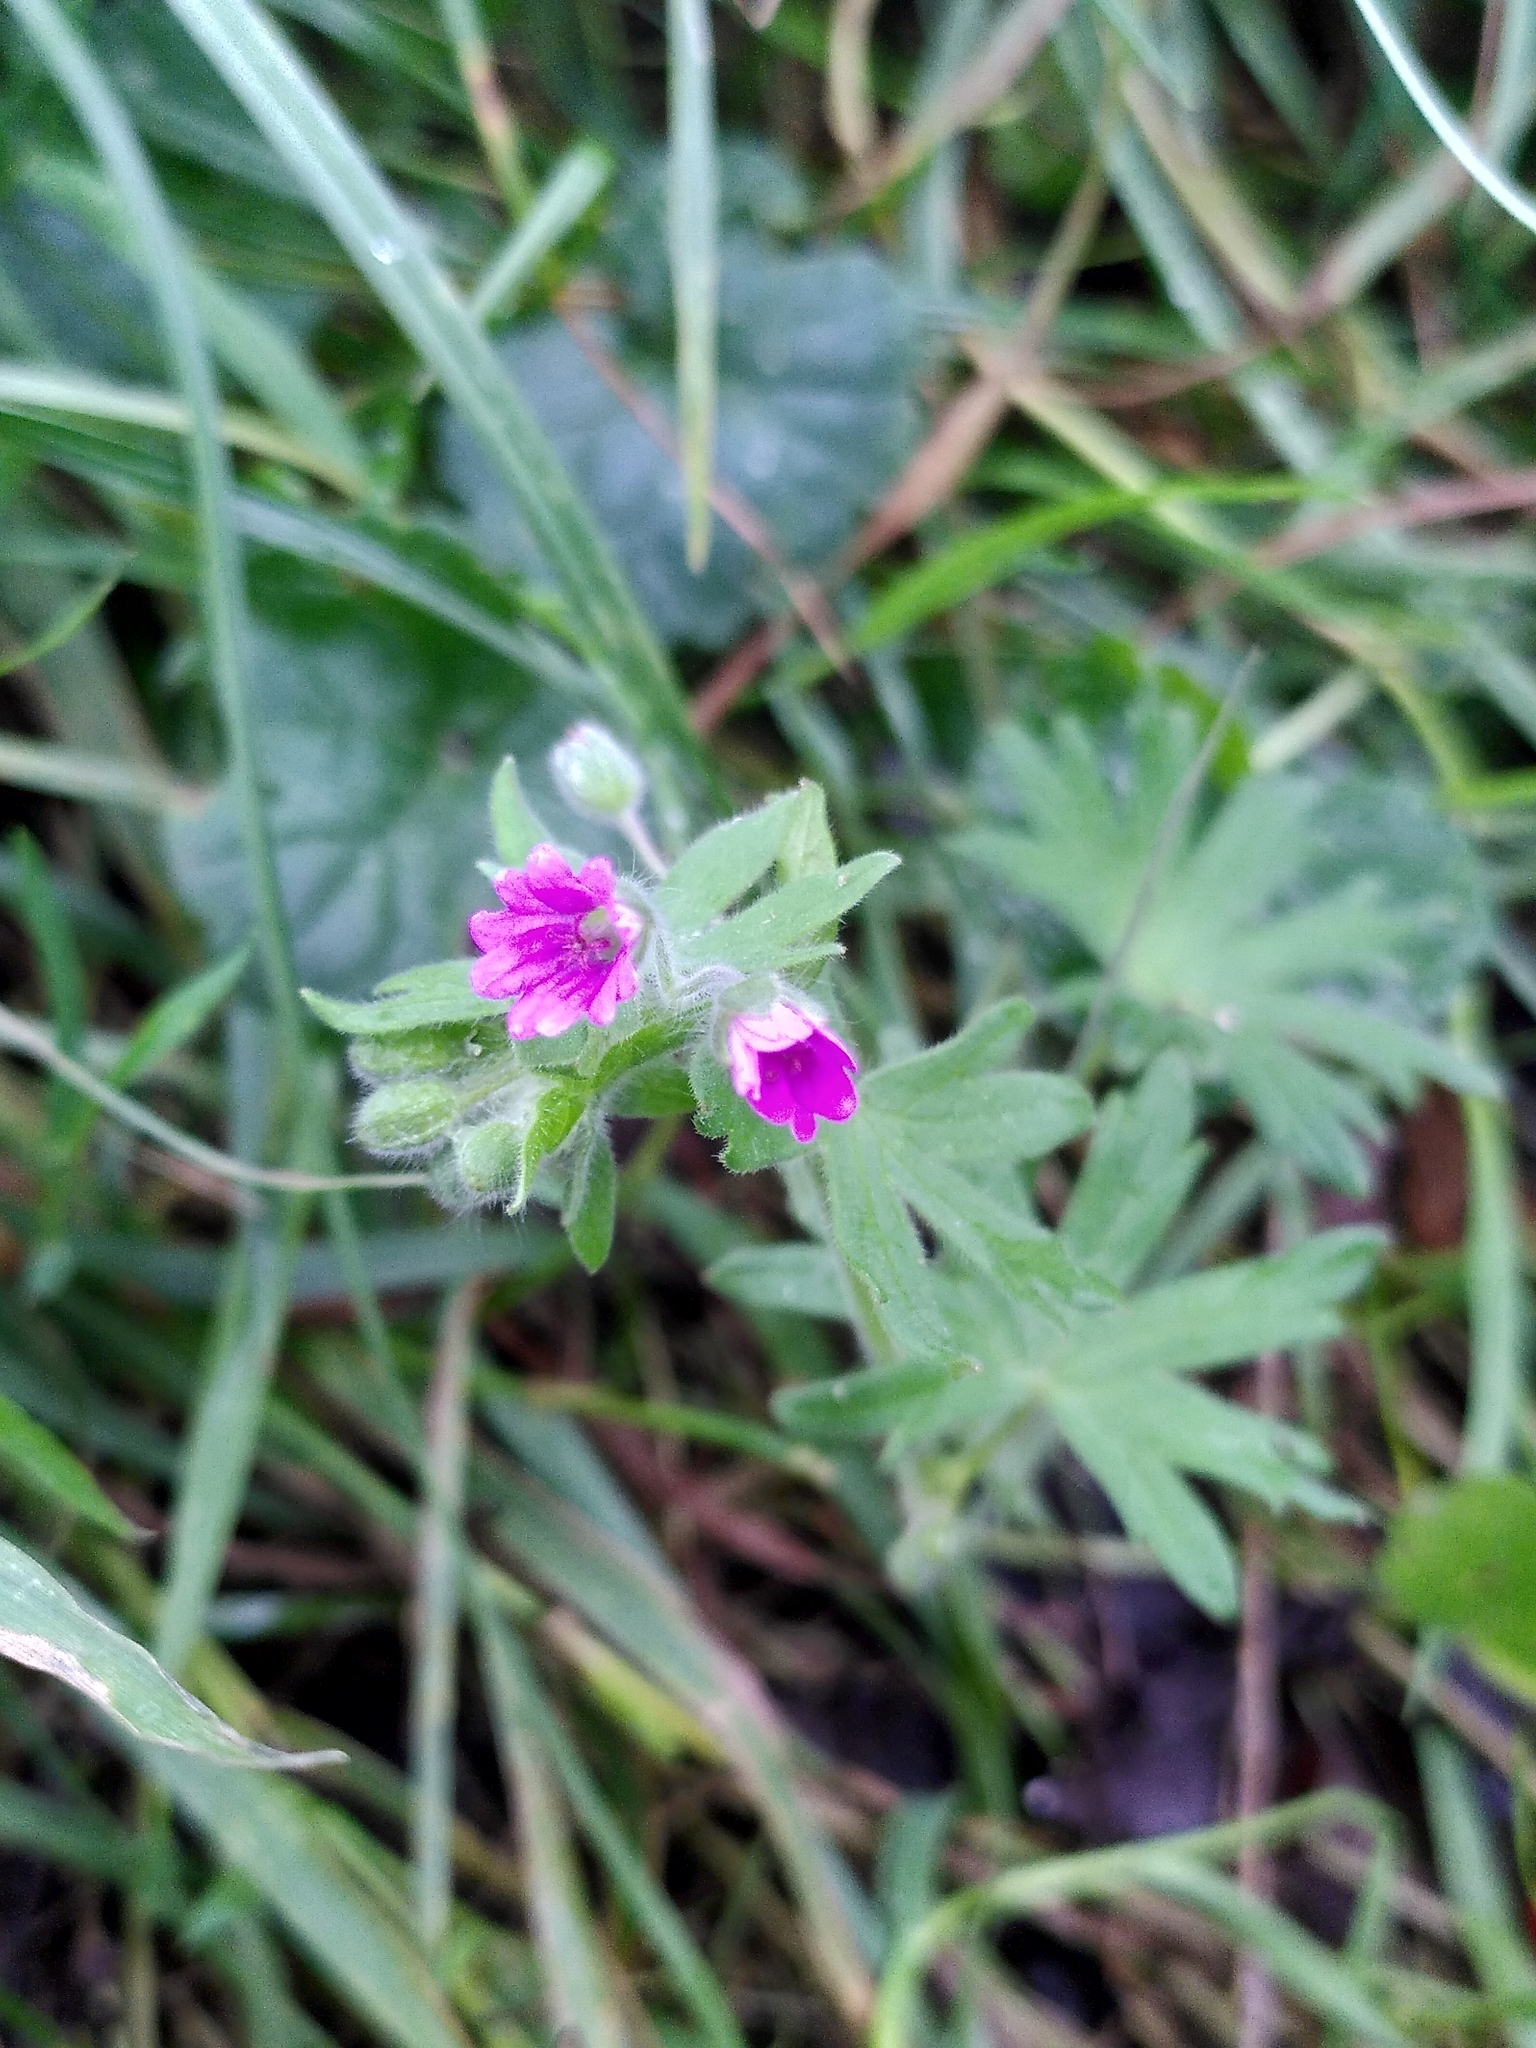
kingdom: Plantae
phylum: Tracheophyta
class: Magnoliopsida
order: Geraniales
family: Geraniaceae
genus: Geranium
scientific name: Geranium dissectum
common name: Cut-leaved crane's-bill
